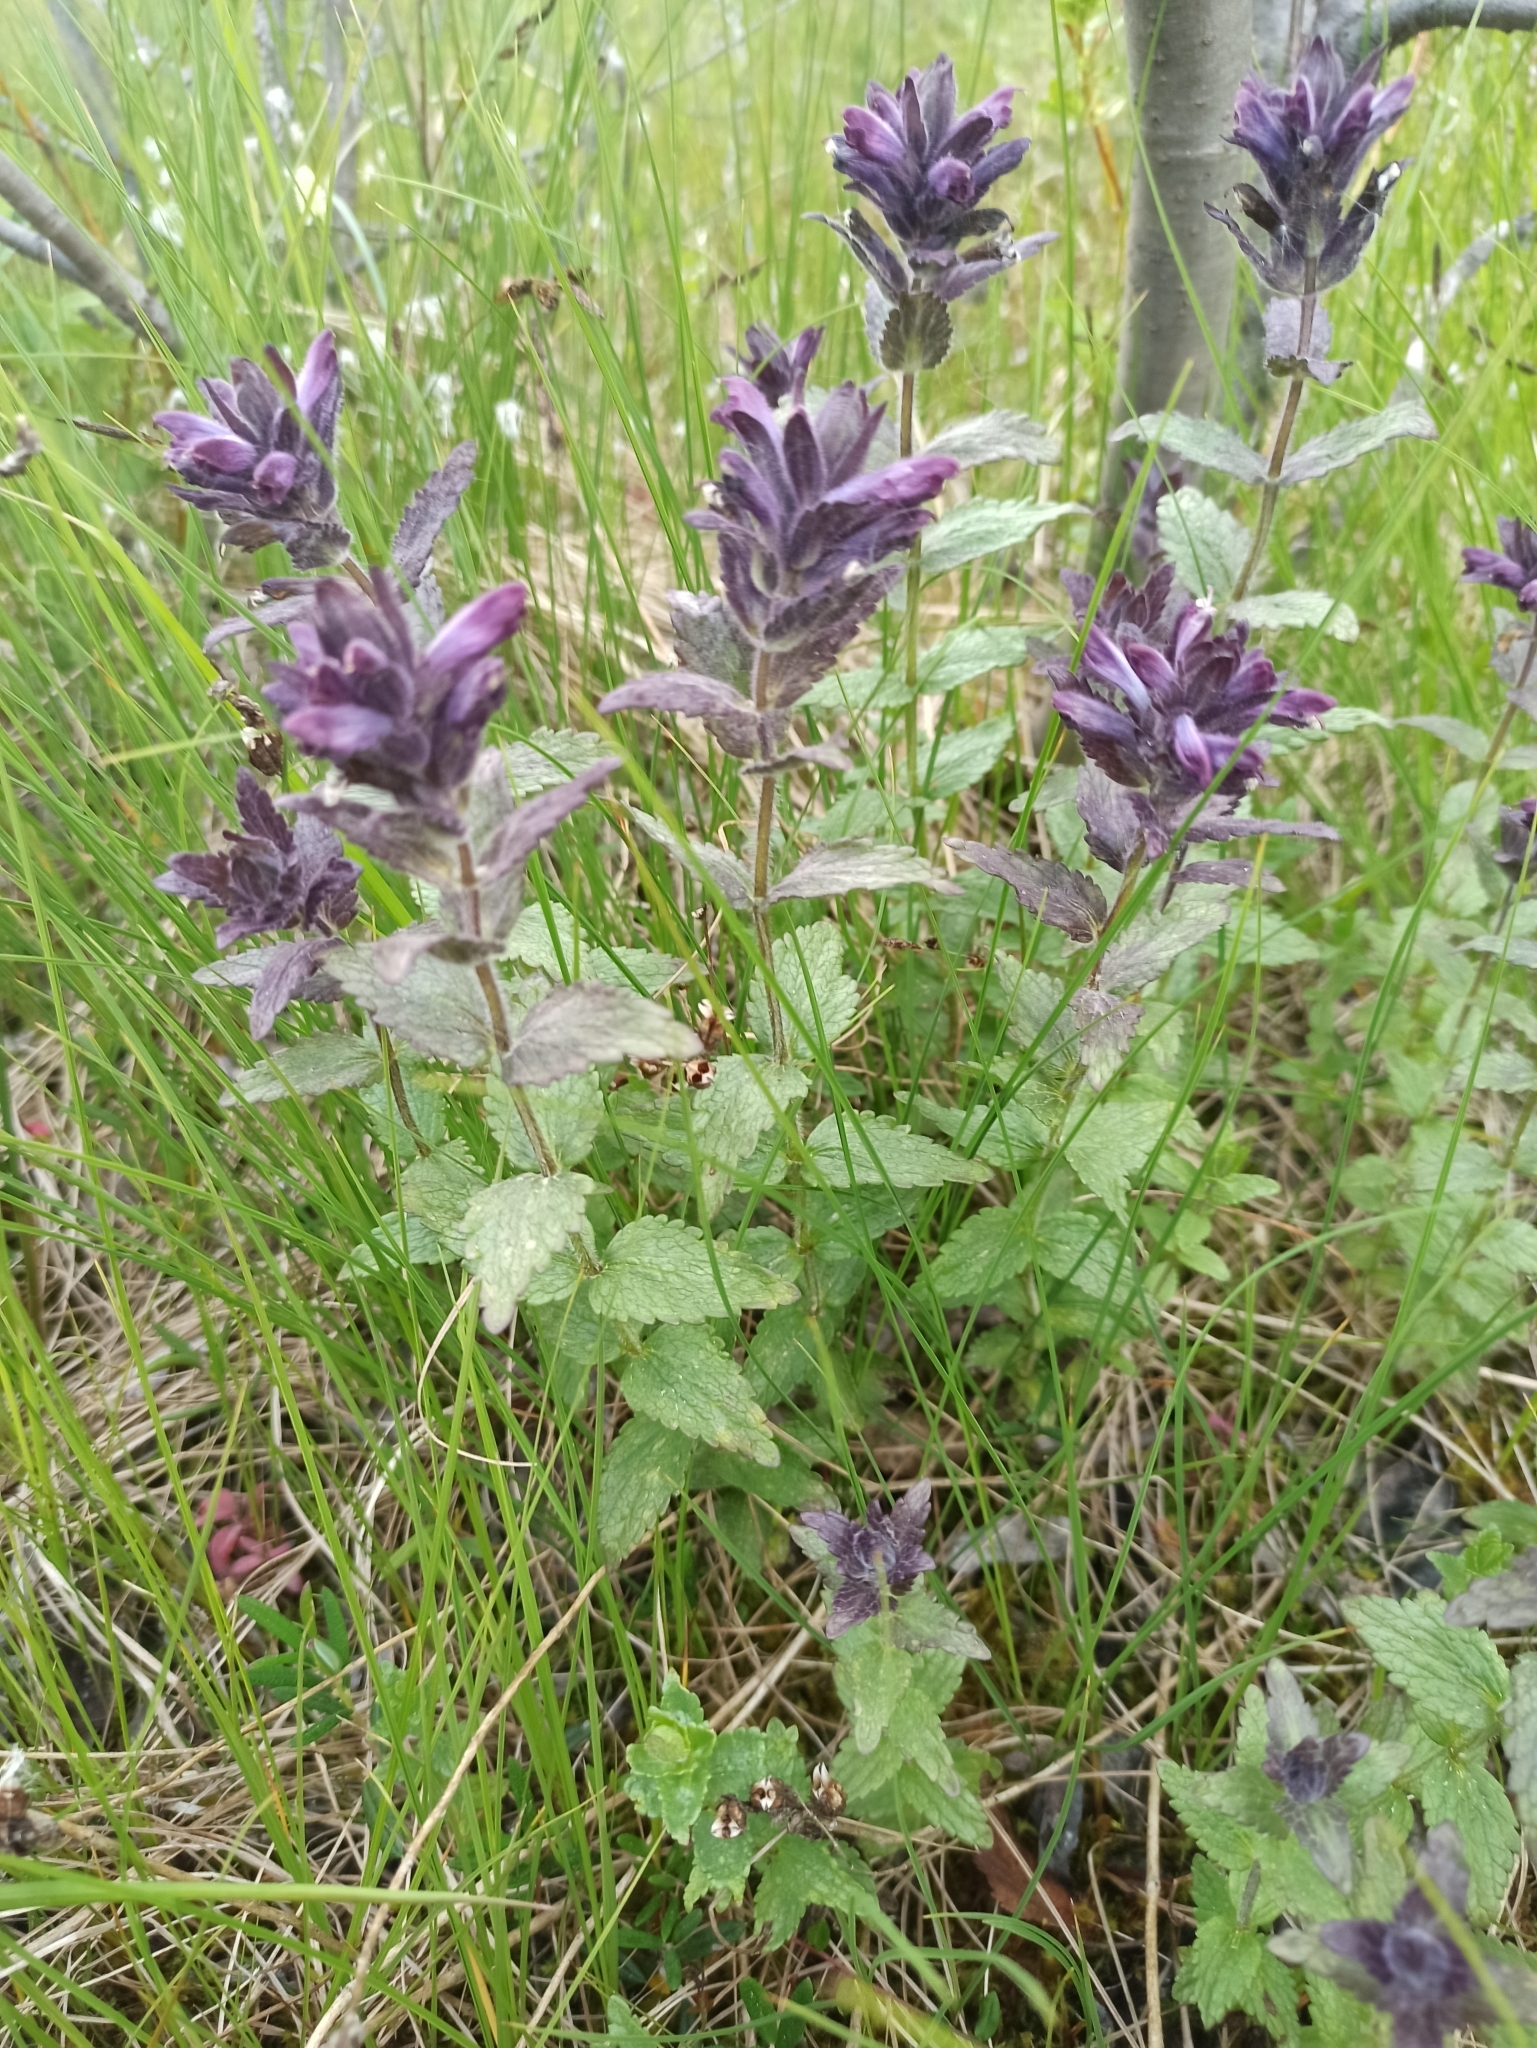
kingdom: Plantae
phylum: Tracheophyta
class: Magnoliopsida
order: Lamiales
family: Orobanchaceae
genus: Bartsia
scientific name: Bartsia alpina
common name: Alpine bartsia
